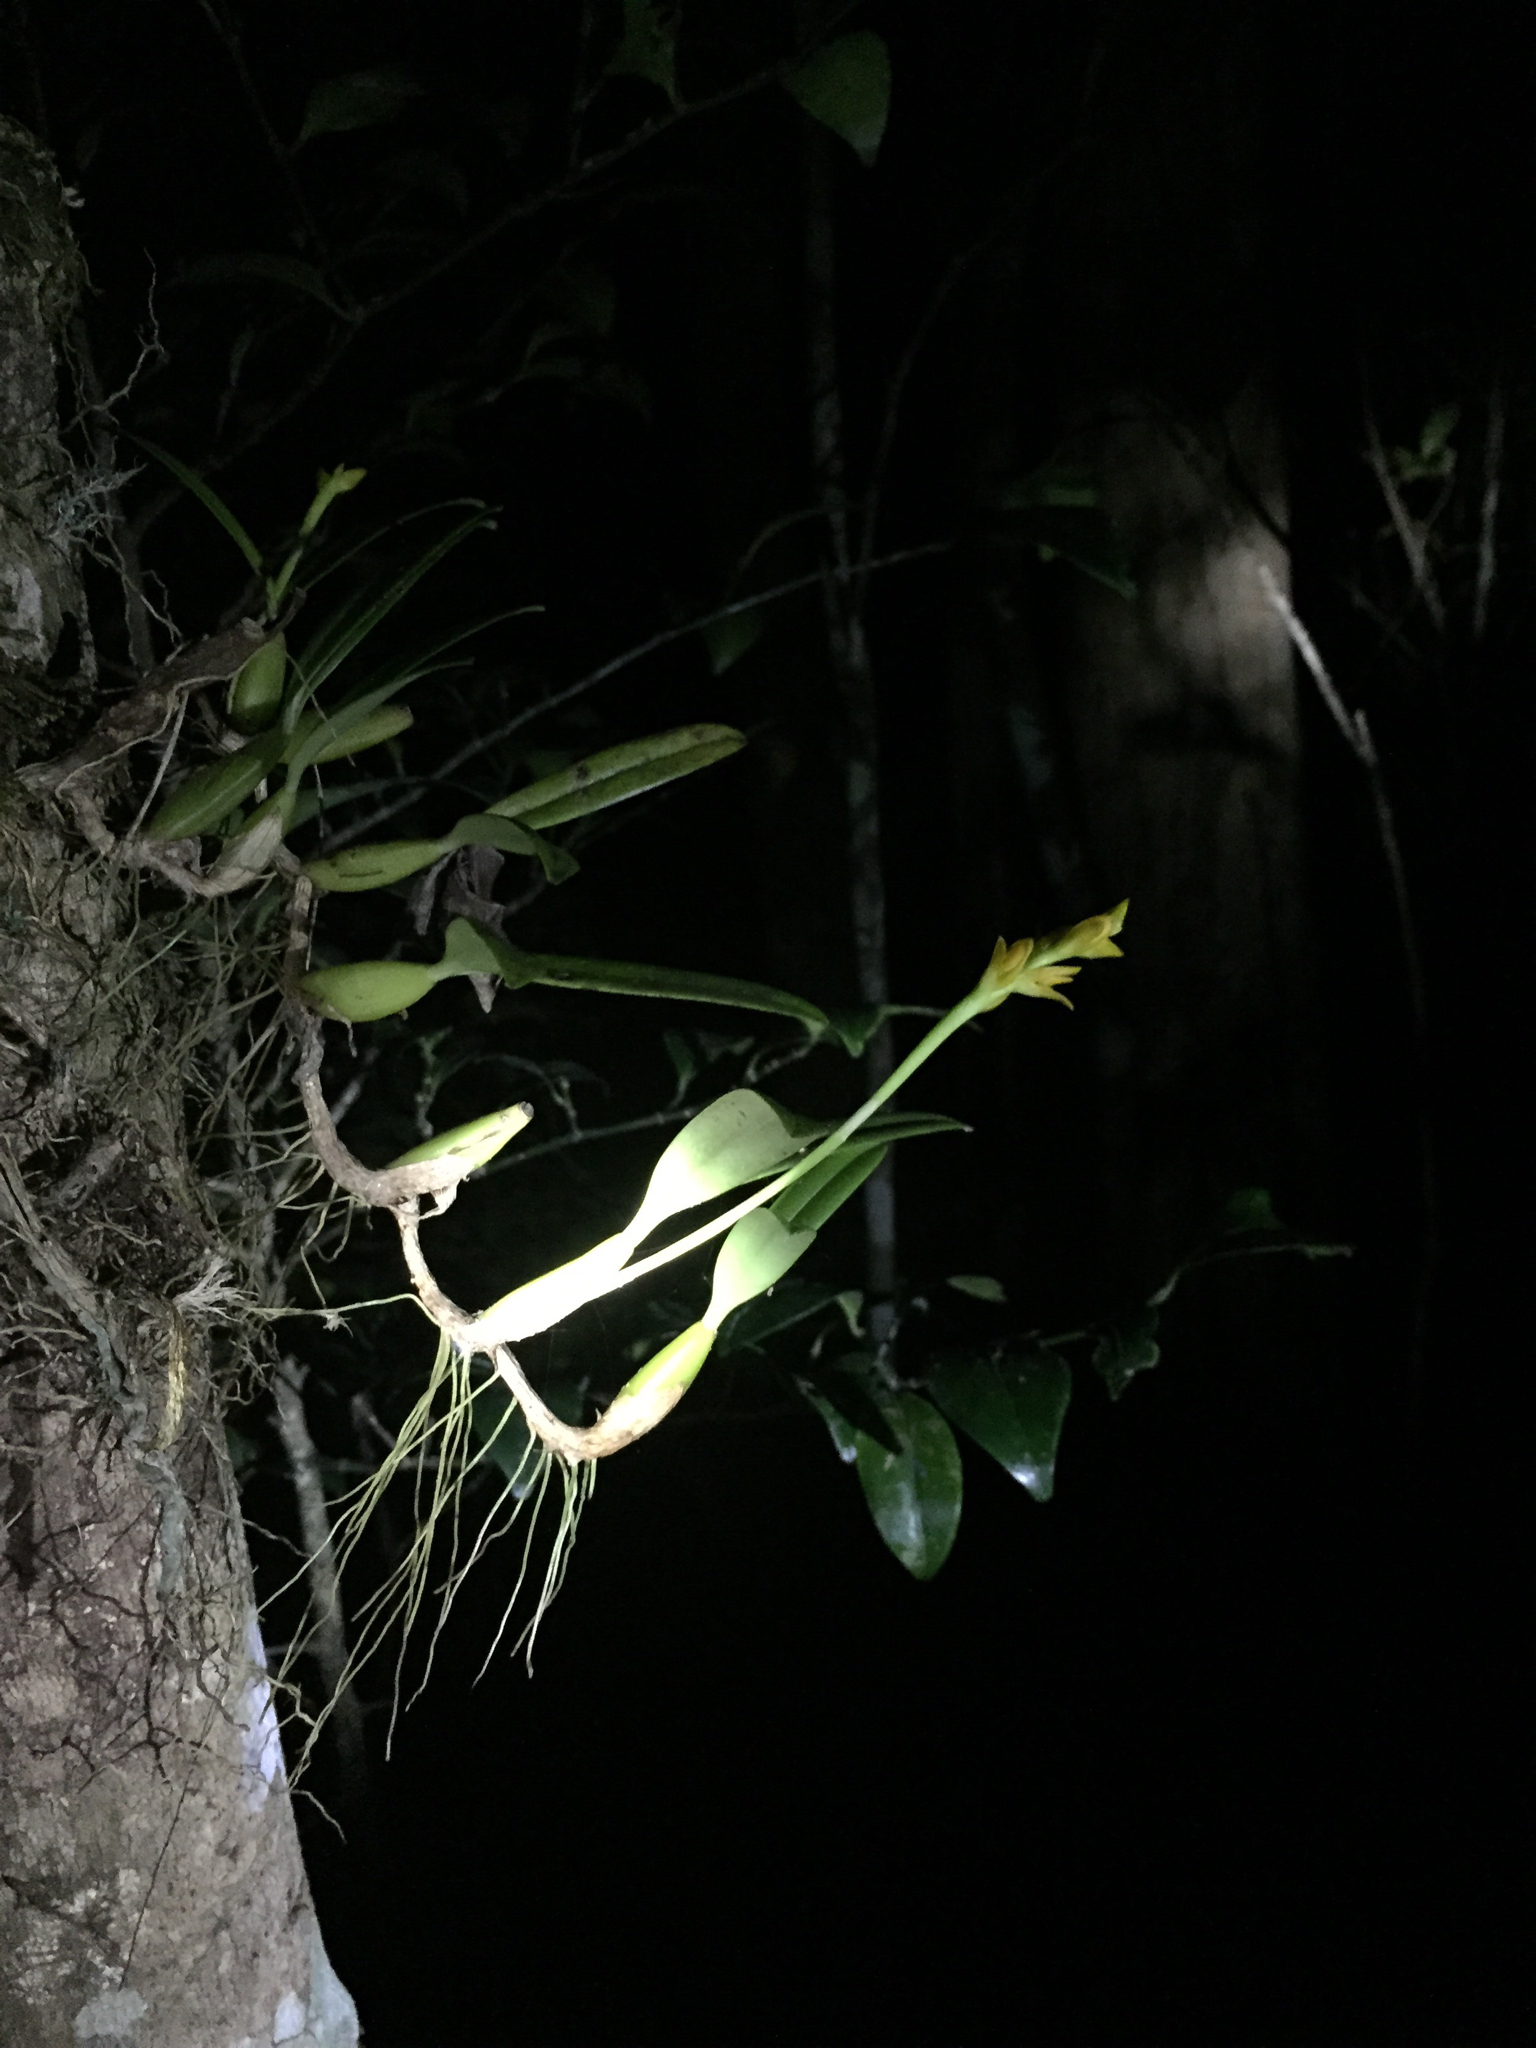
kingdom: Plantae
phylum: Tracheophyta
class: Liliopsida
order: Asparagales
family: Orchidaceae
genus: Bulbophyllum
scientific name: Bulbophyllum auriflorum
